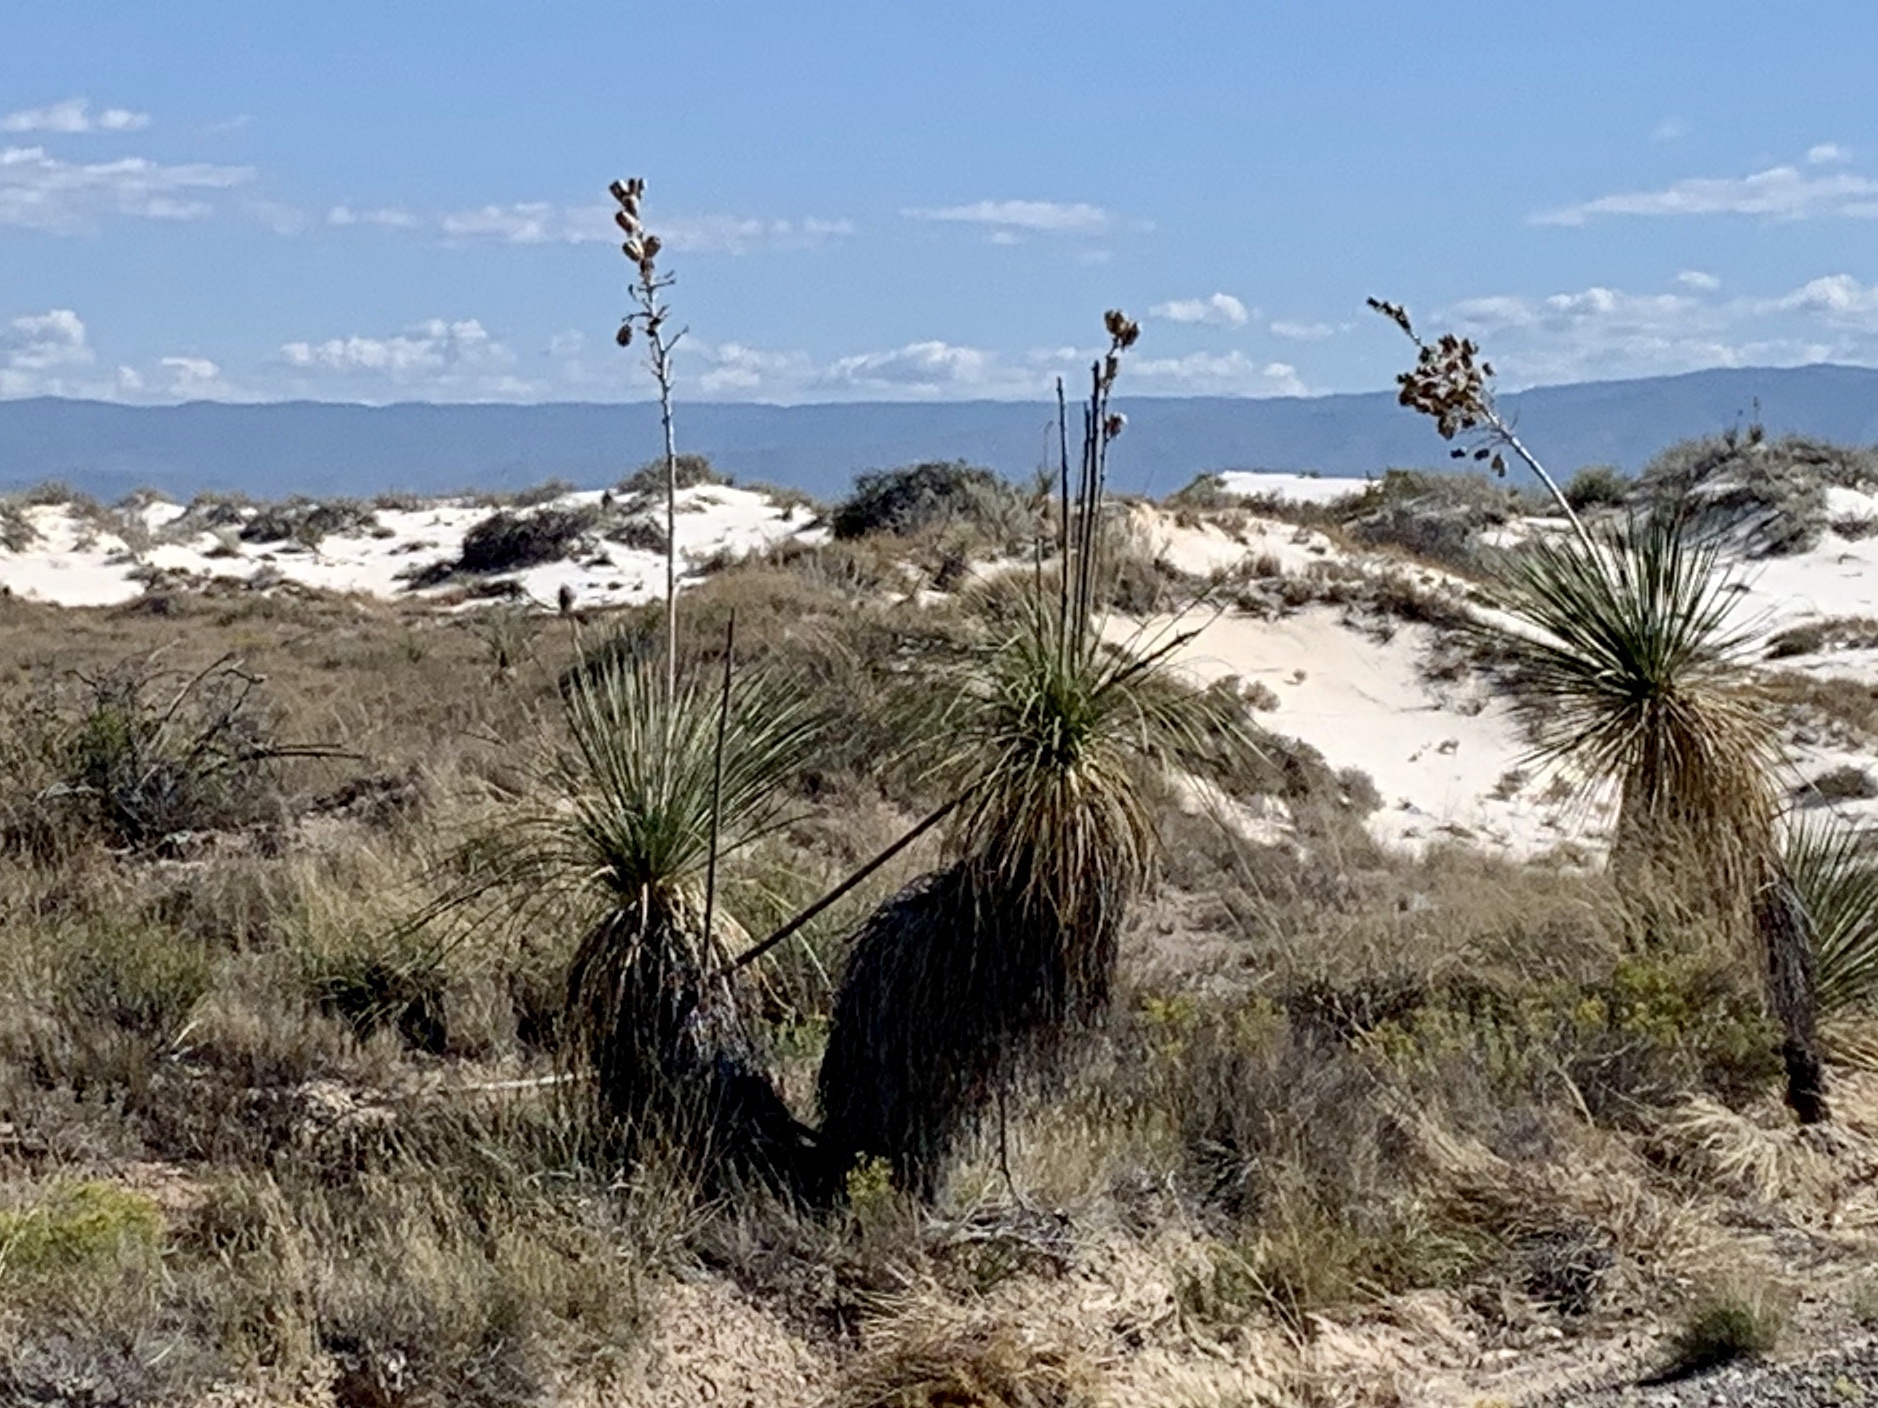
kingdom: Plantae
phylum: Tracheophyta
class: Liliopsida
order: Asparagales
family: Asparagaceae
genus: Yucca
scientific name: Yucca elata
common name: Palmella
